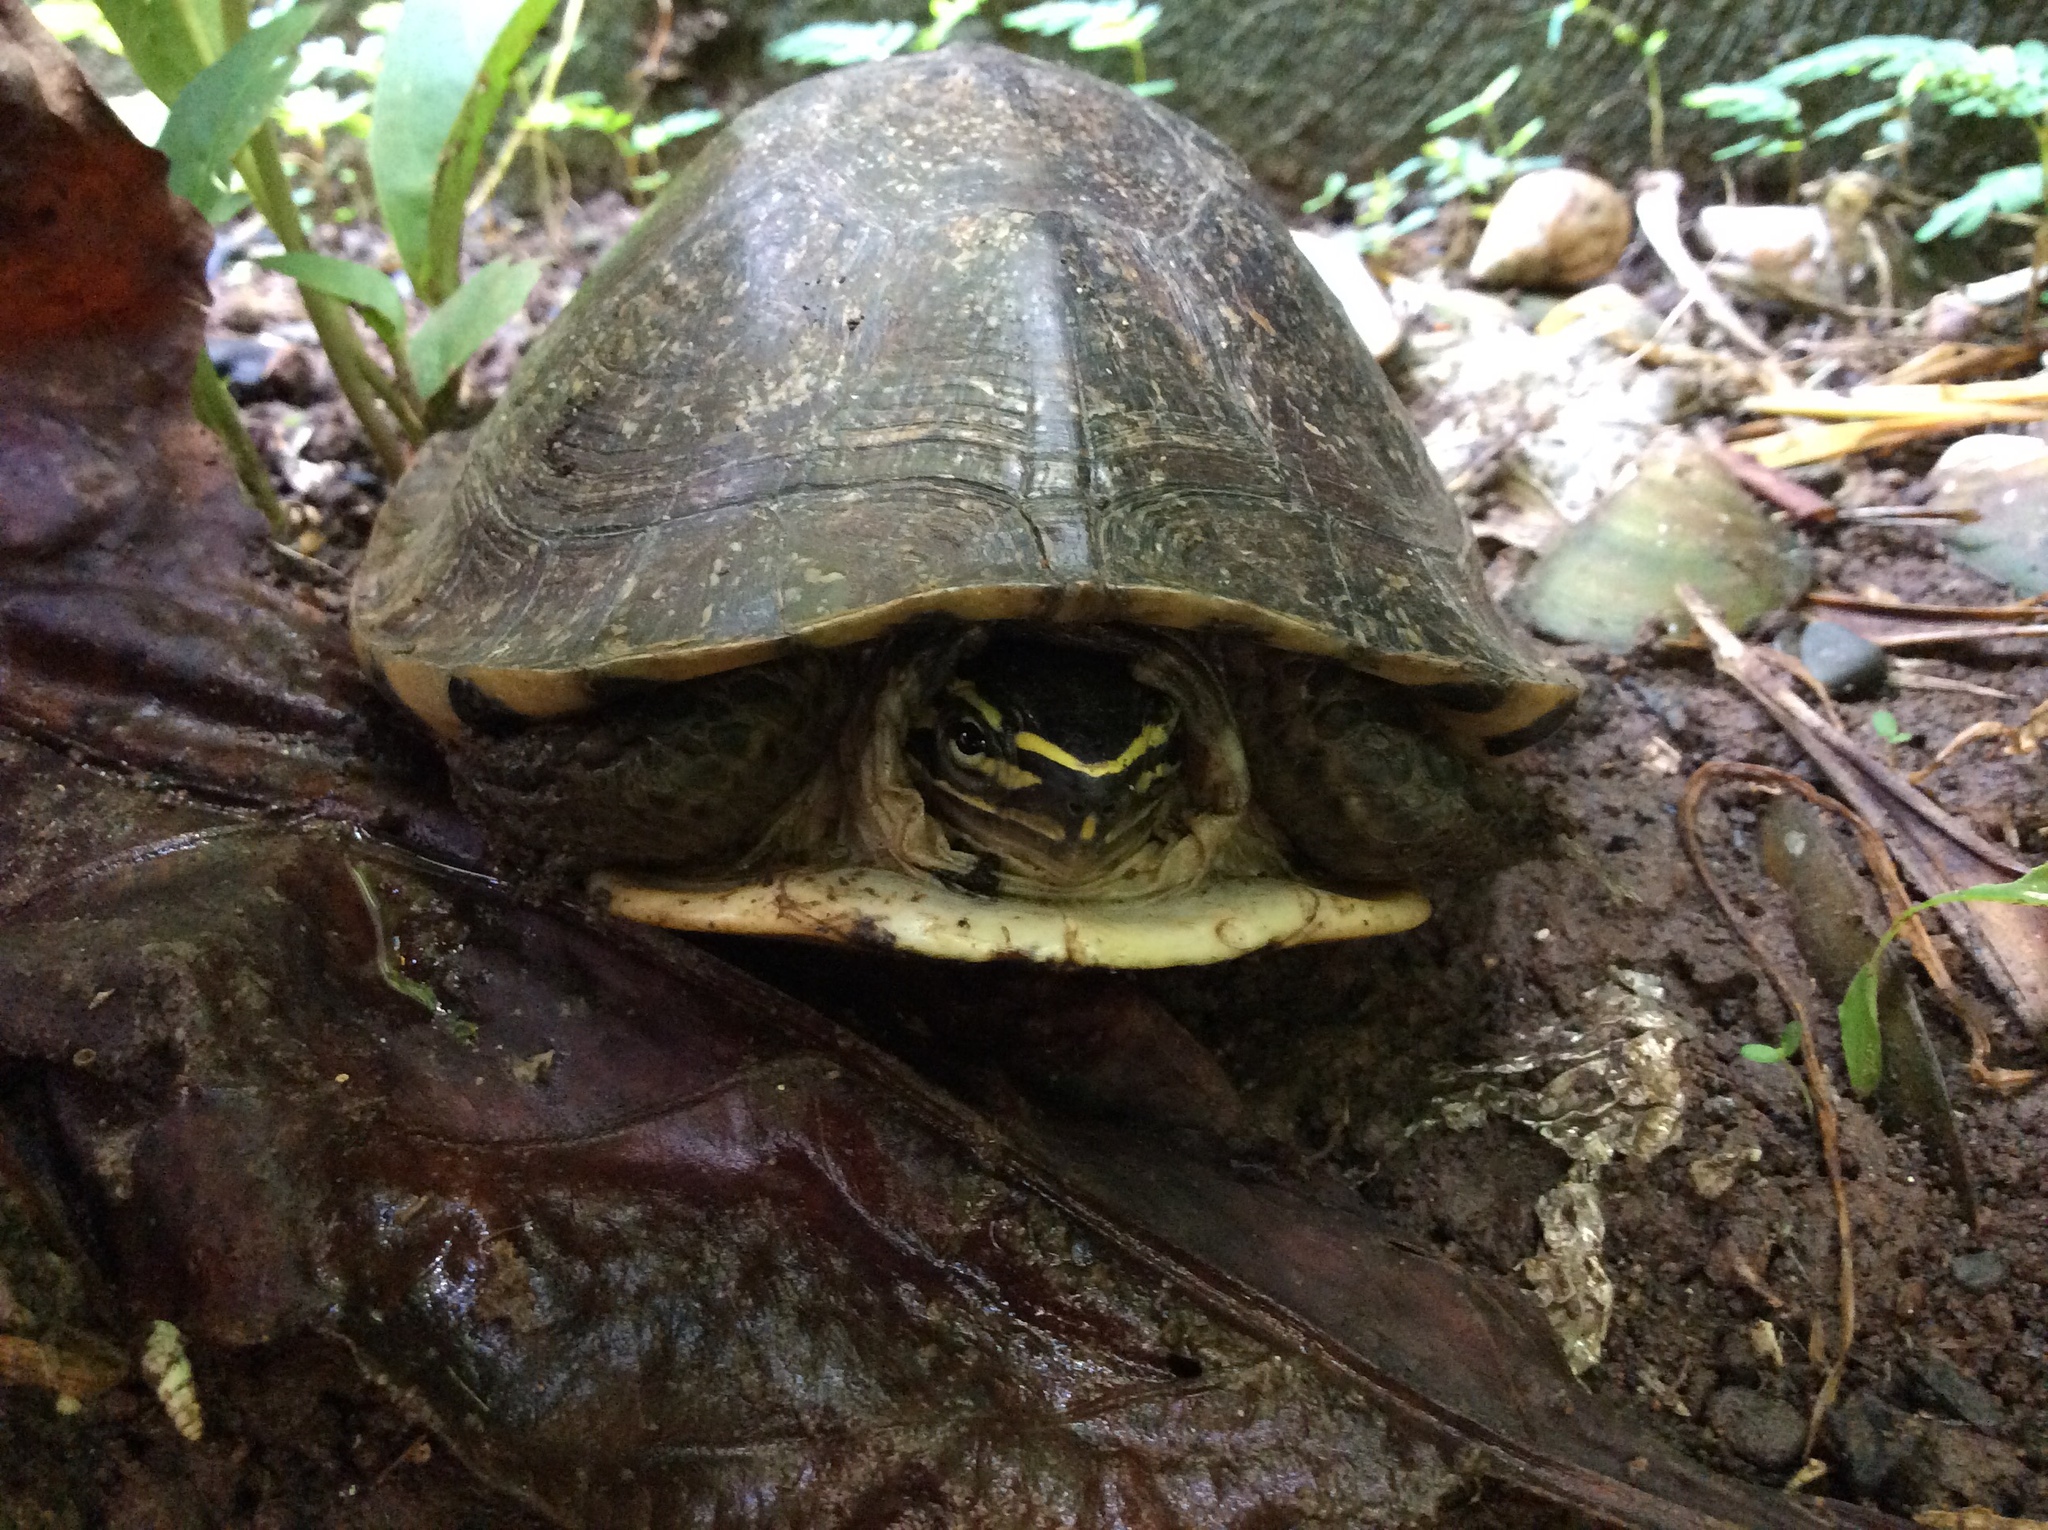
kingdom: Animalia
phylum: Chordata
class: Testudines
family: Geoemydidae
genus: Cuora
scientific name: Cuora
